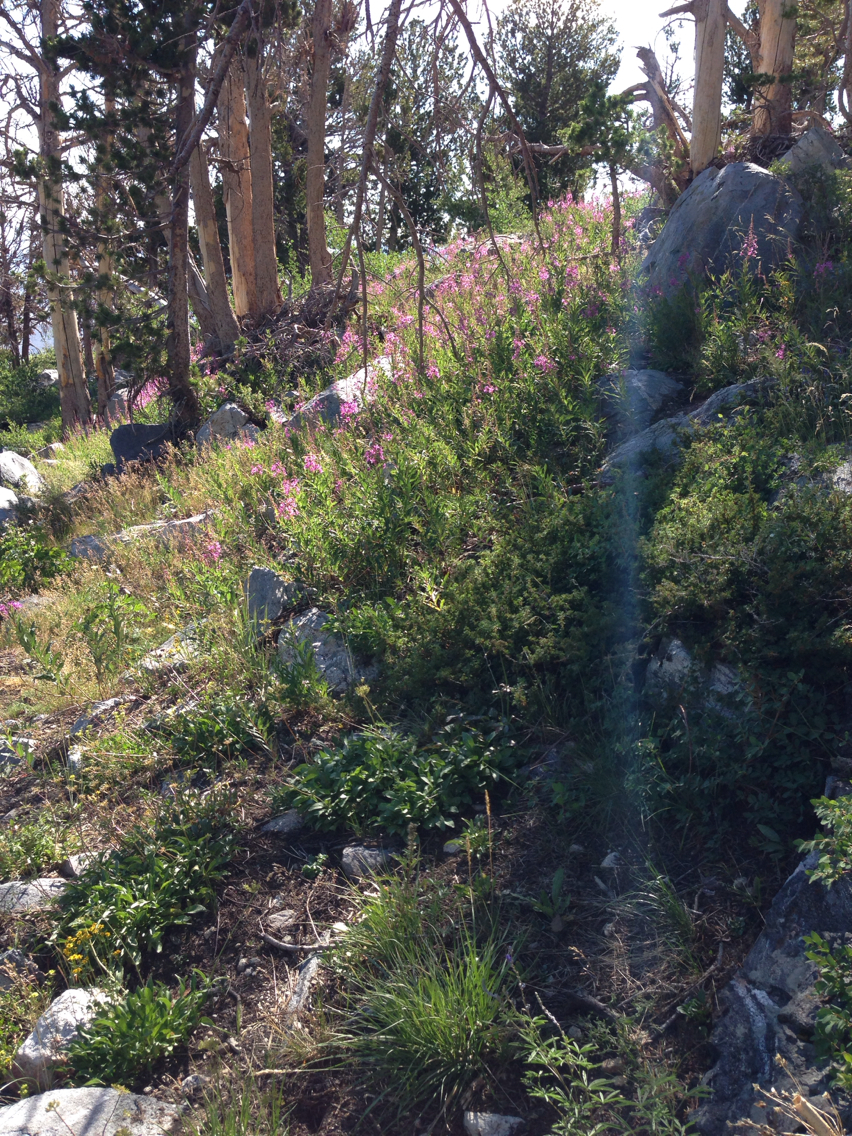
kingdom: Plantae
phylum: Tracheophyta
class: Magnoliopsida
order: Myrtales
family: Onagraceae
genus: Chamaenerion
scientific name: Chamaenerion angustifolium
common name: Fireweed
